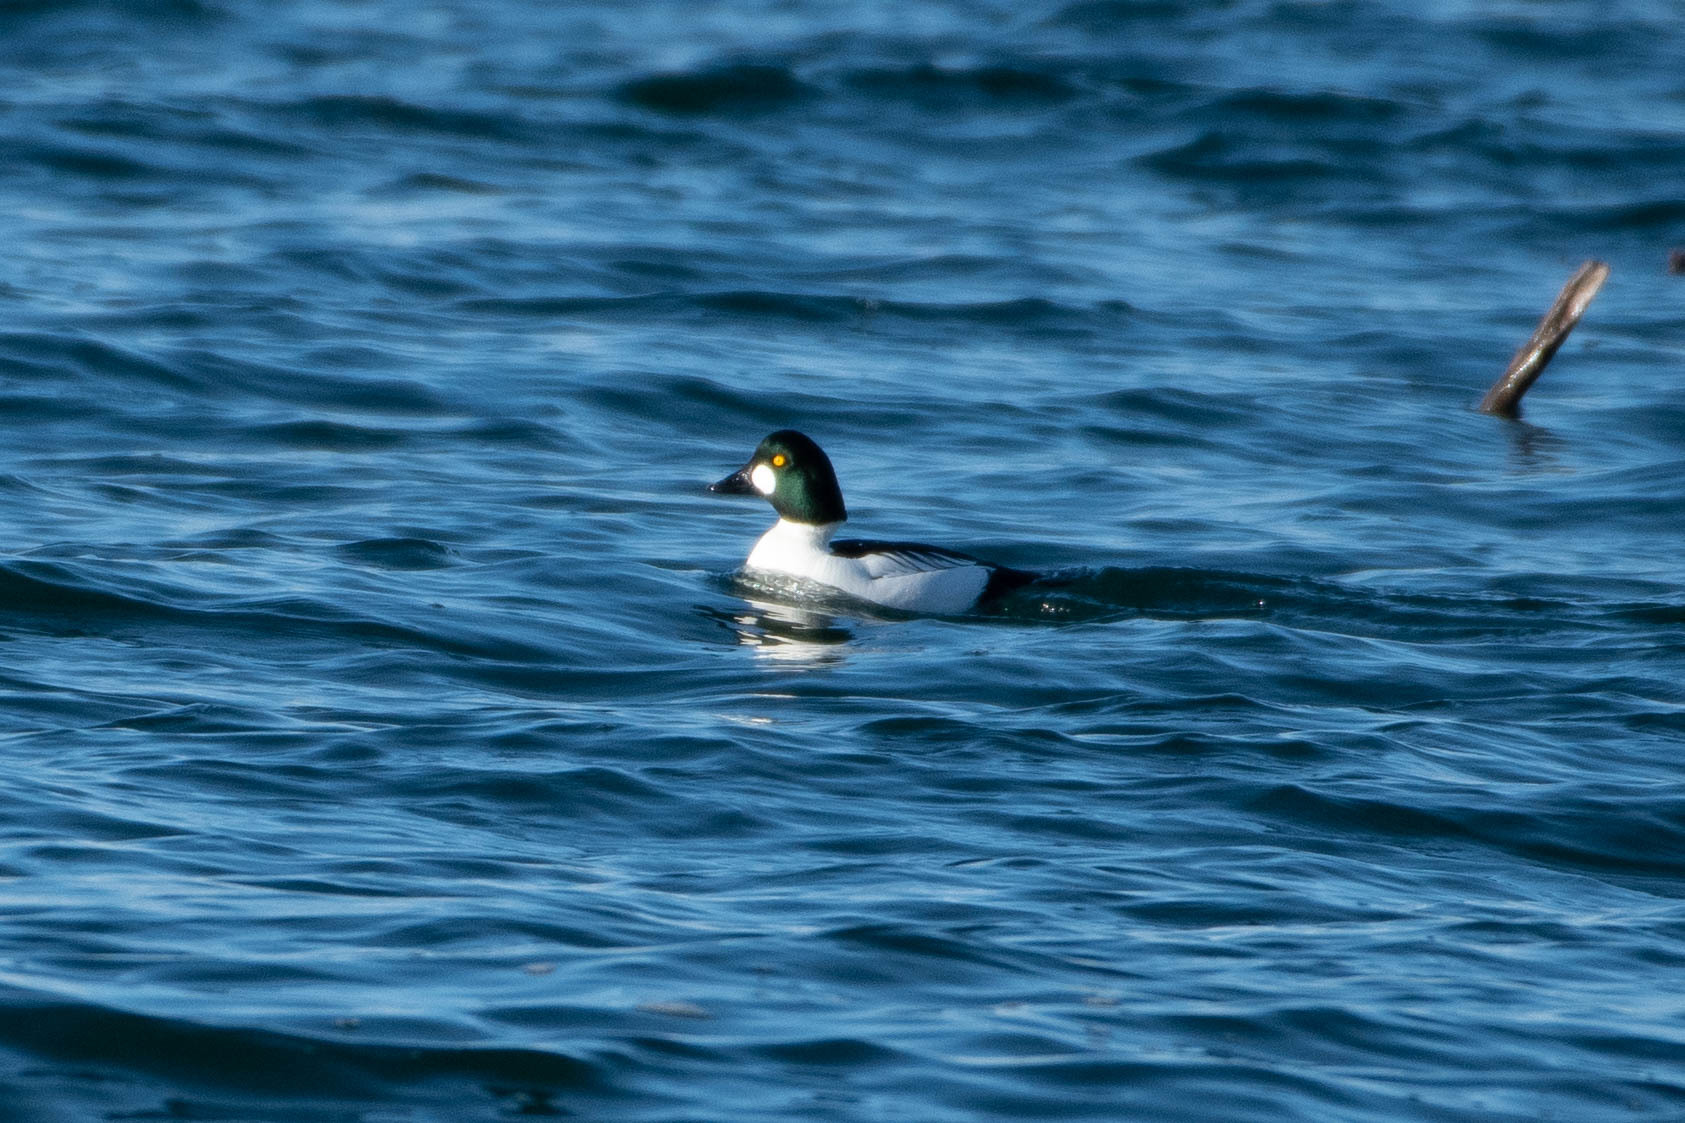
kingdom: Animalia
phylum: Chordata
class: Aves
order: Anseriformes
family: Anatidae
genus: Bucephala
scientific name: Bucephala clangula
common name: Common goldeneye
